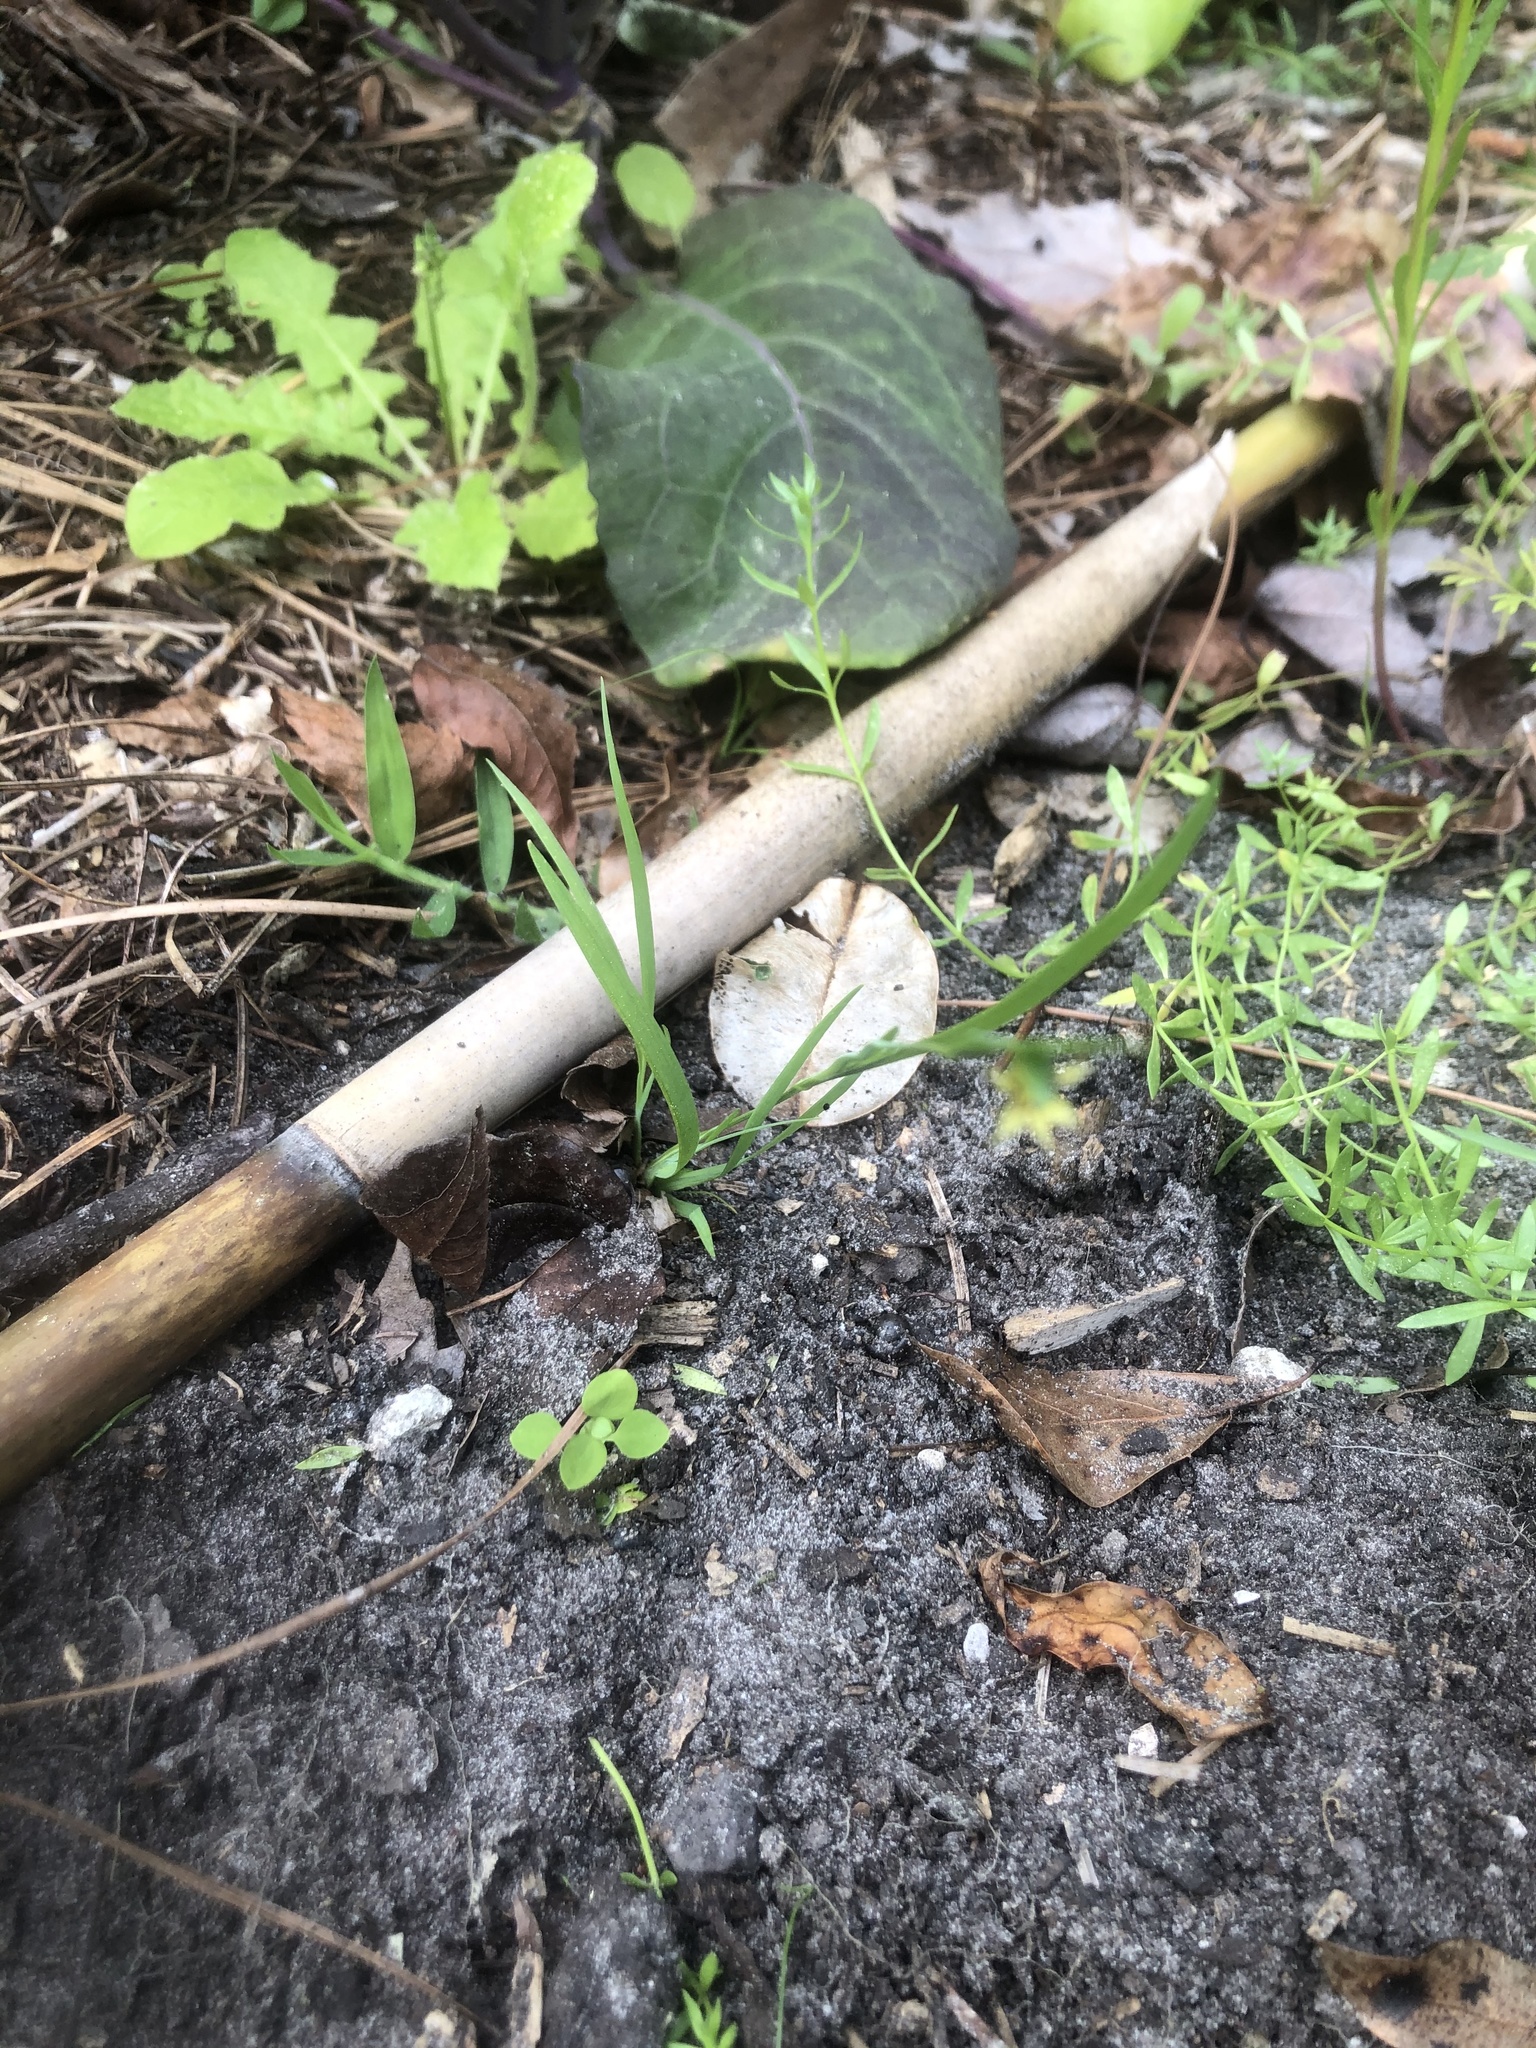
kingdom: Plantae
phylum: Tracheophyta
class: Liliopsida
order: Asparagales
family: Iridaceae
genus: Sisyrinchium
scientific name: Sisyrinchium micranthum
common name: Bermuda pigroot
